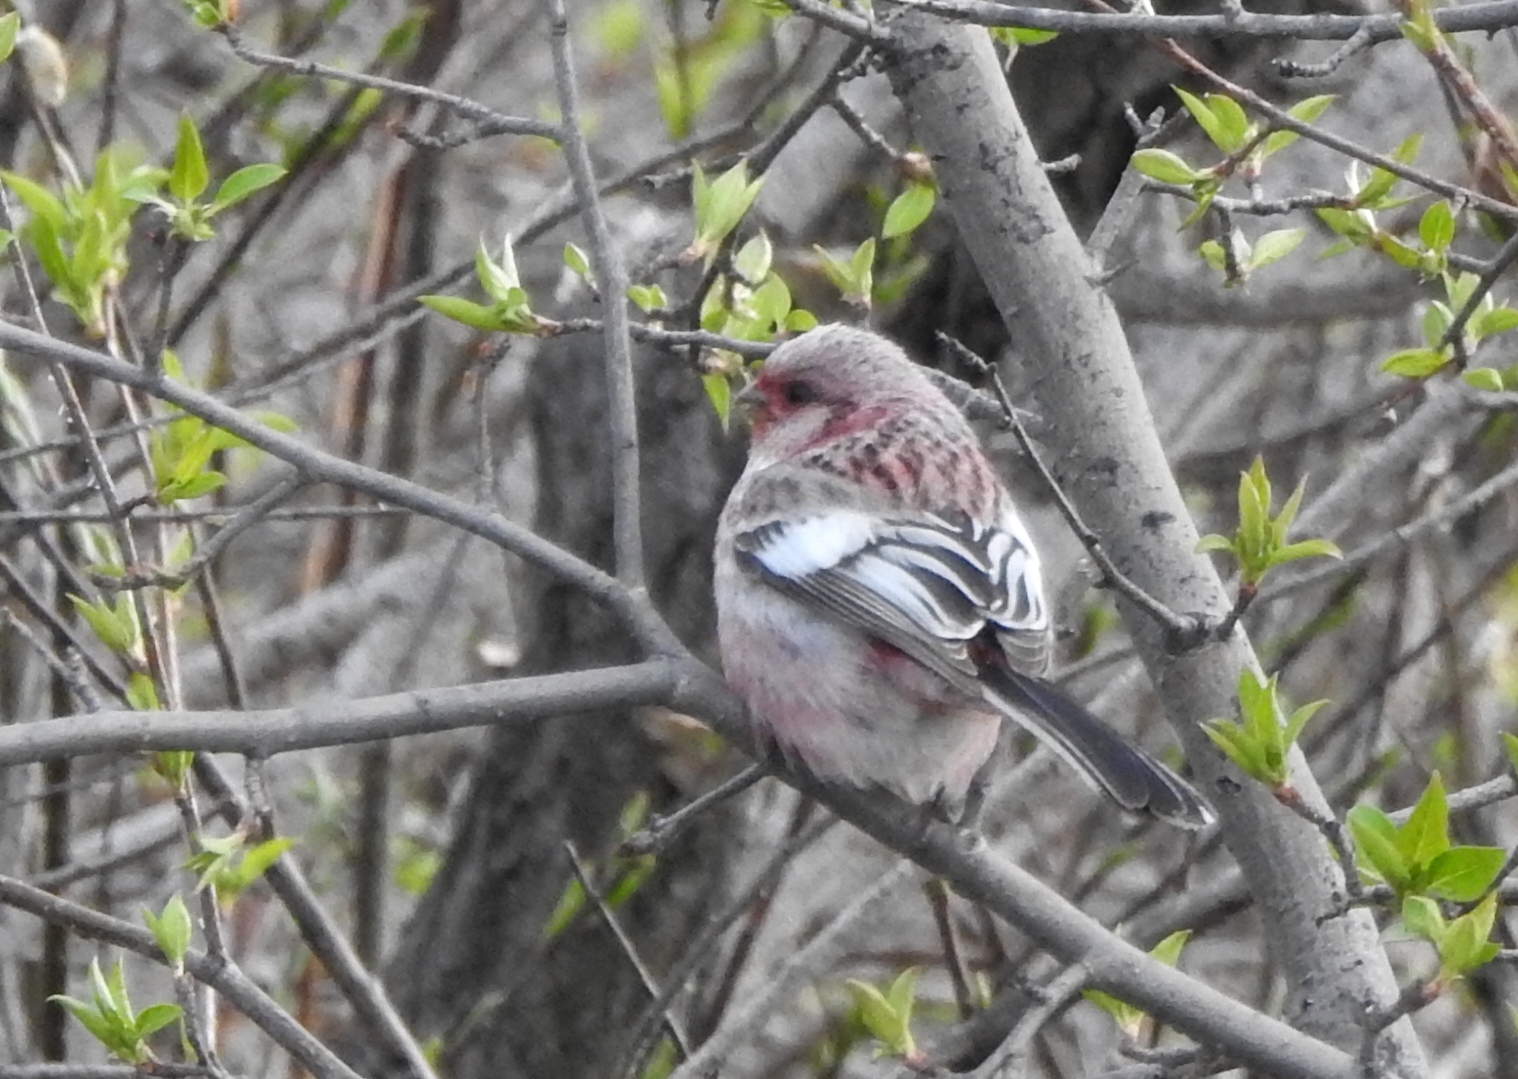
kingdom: Animalia
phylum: Chordata
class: Aves
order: Passeriformes
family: Fringillidae
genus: Carpodacus
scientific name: Carpodacus sibiricus
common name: Long-tailed rosefinch
